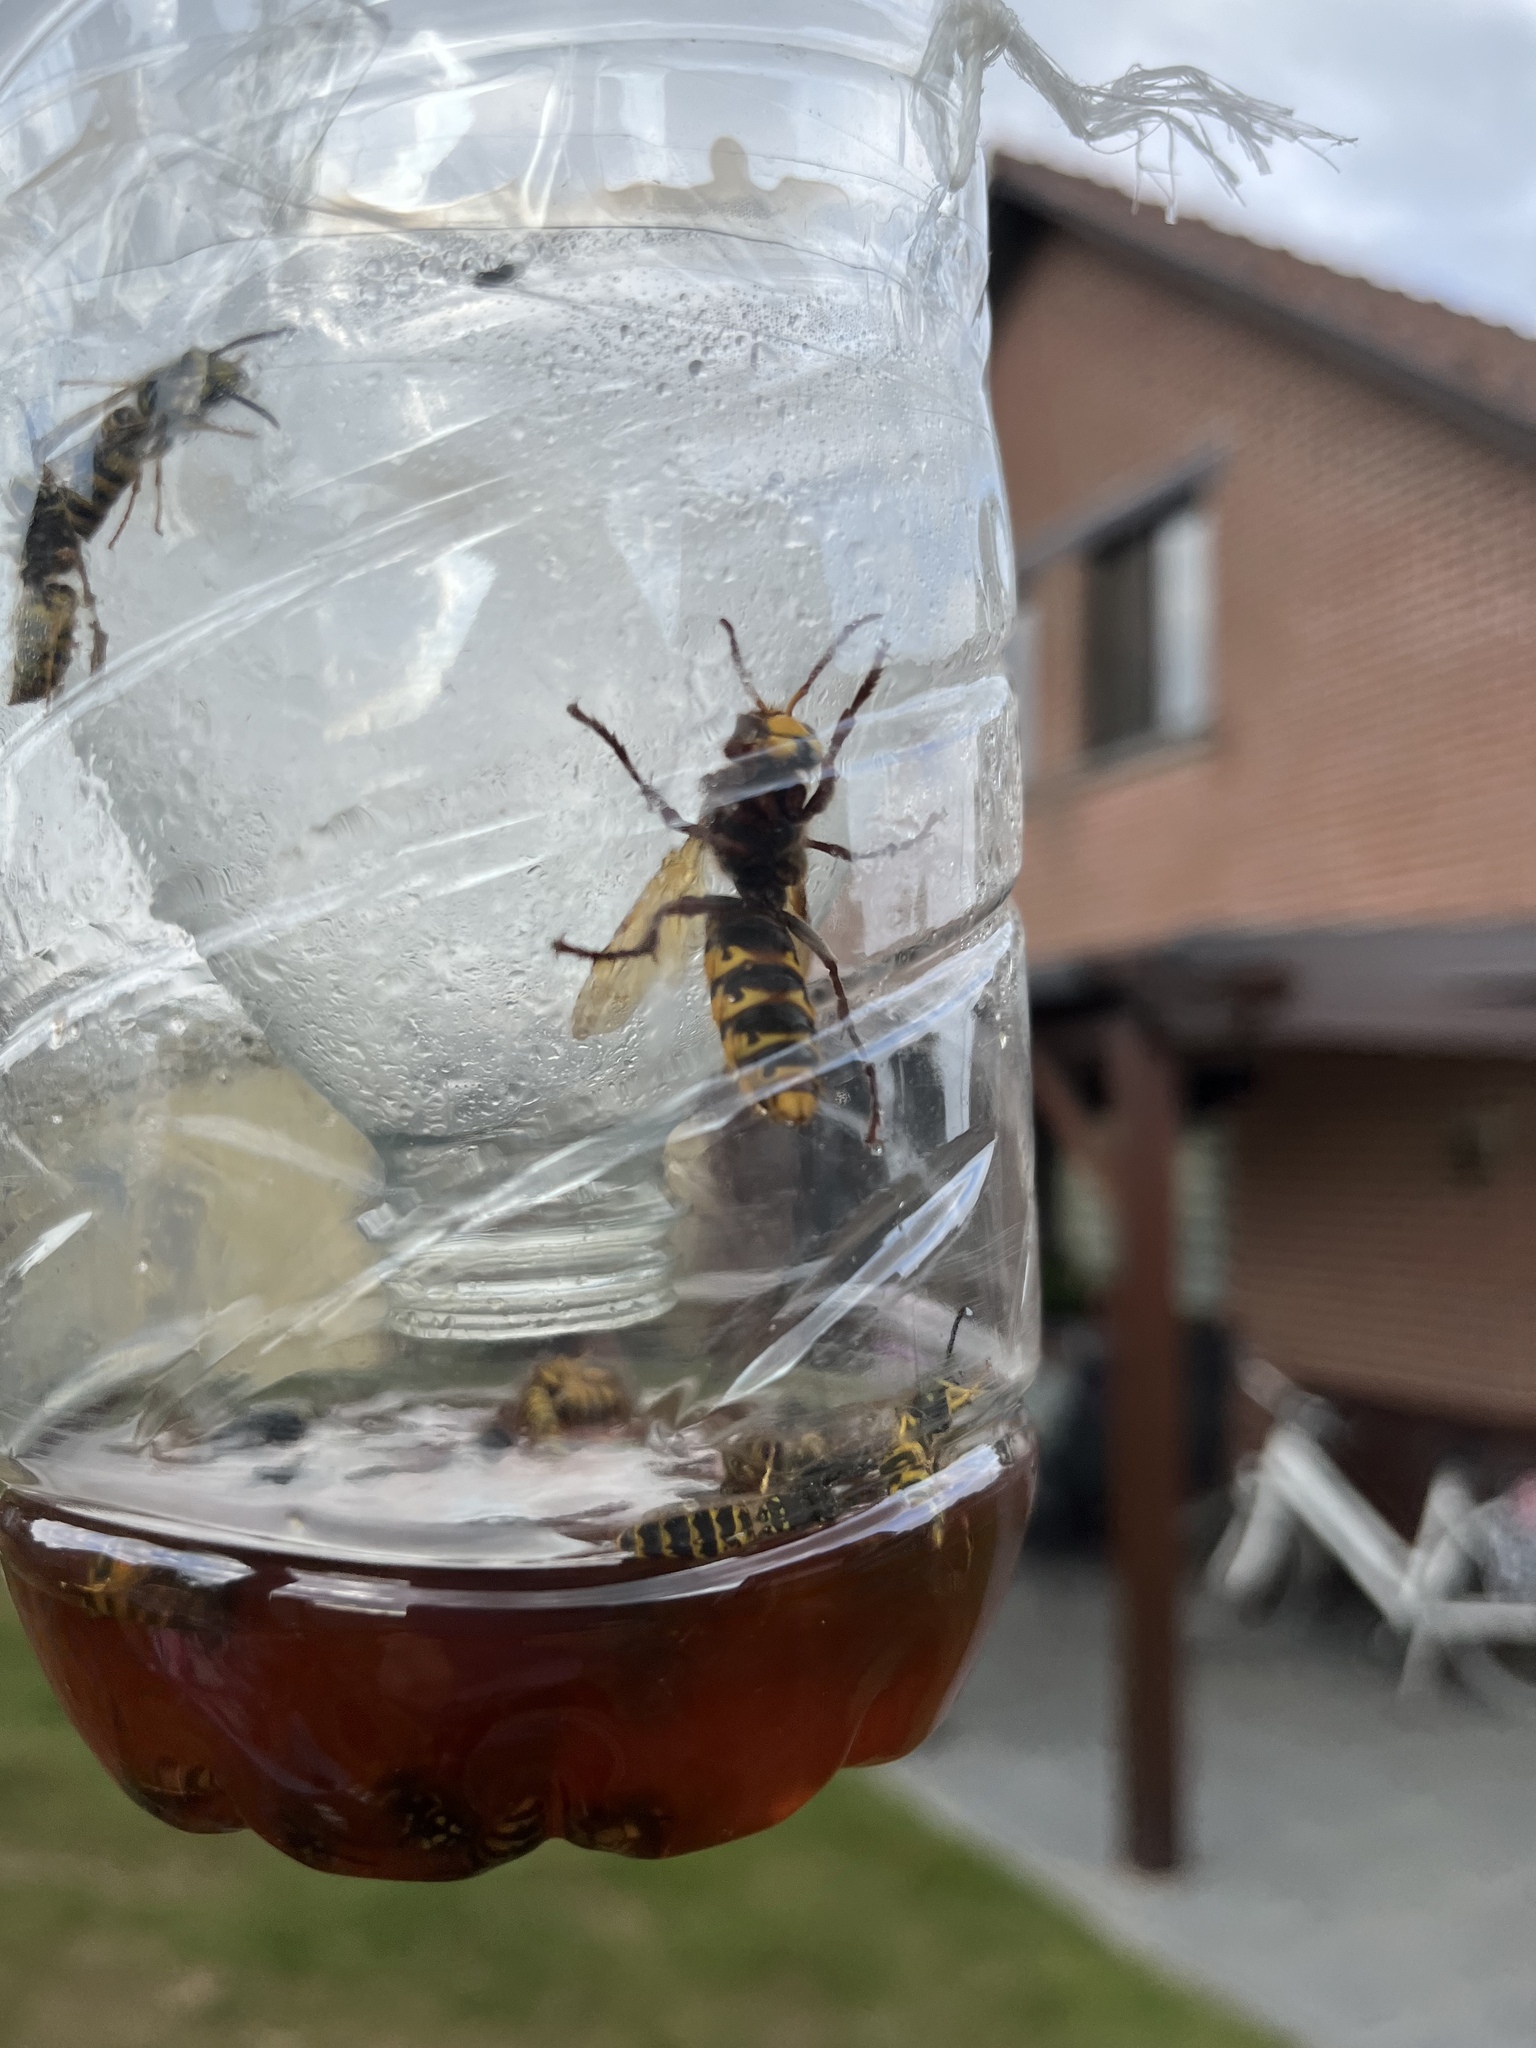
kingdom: Animalia
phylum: Arthropoda
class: Insecta
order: Hymenoptera
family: Vespidae
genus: Vespa
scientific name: Vespa crabro
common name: Hornet
